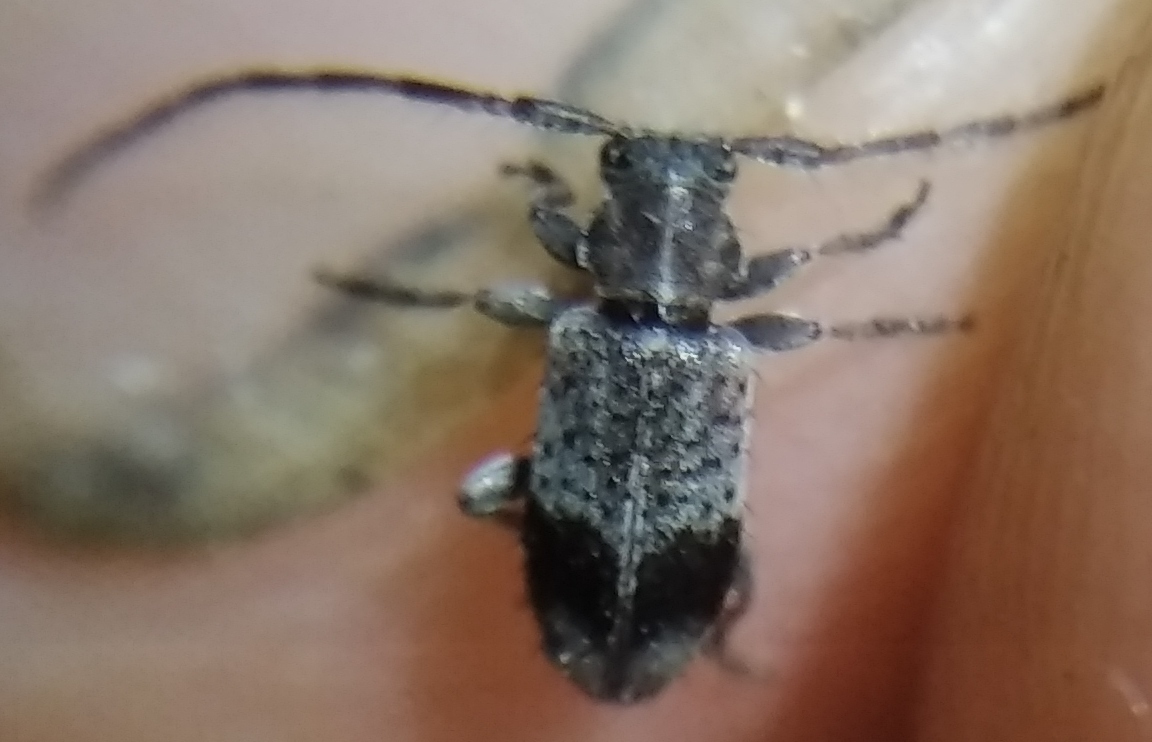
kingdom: Animalia
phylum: Arthropoda
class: Insecta
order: Coleoptera
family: Cerambycidae
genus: Exocentrus
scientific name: Exocentrus punctipennis
